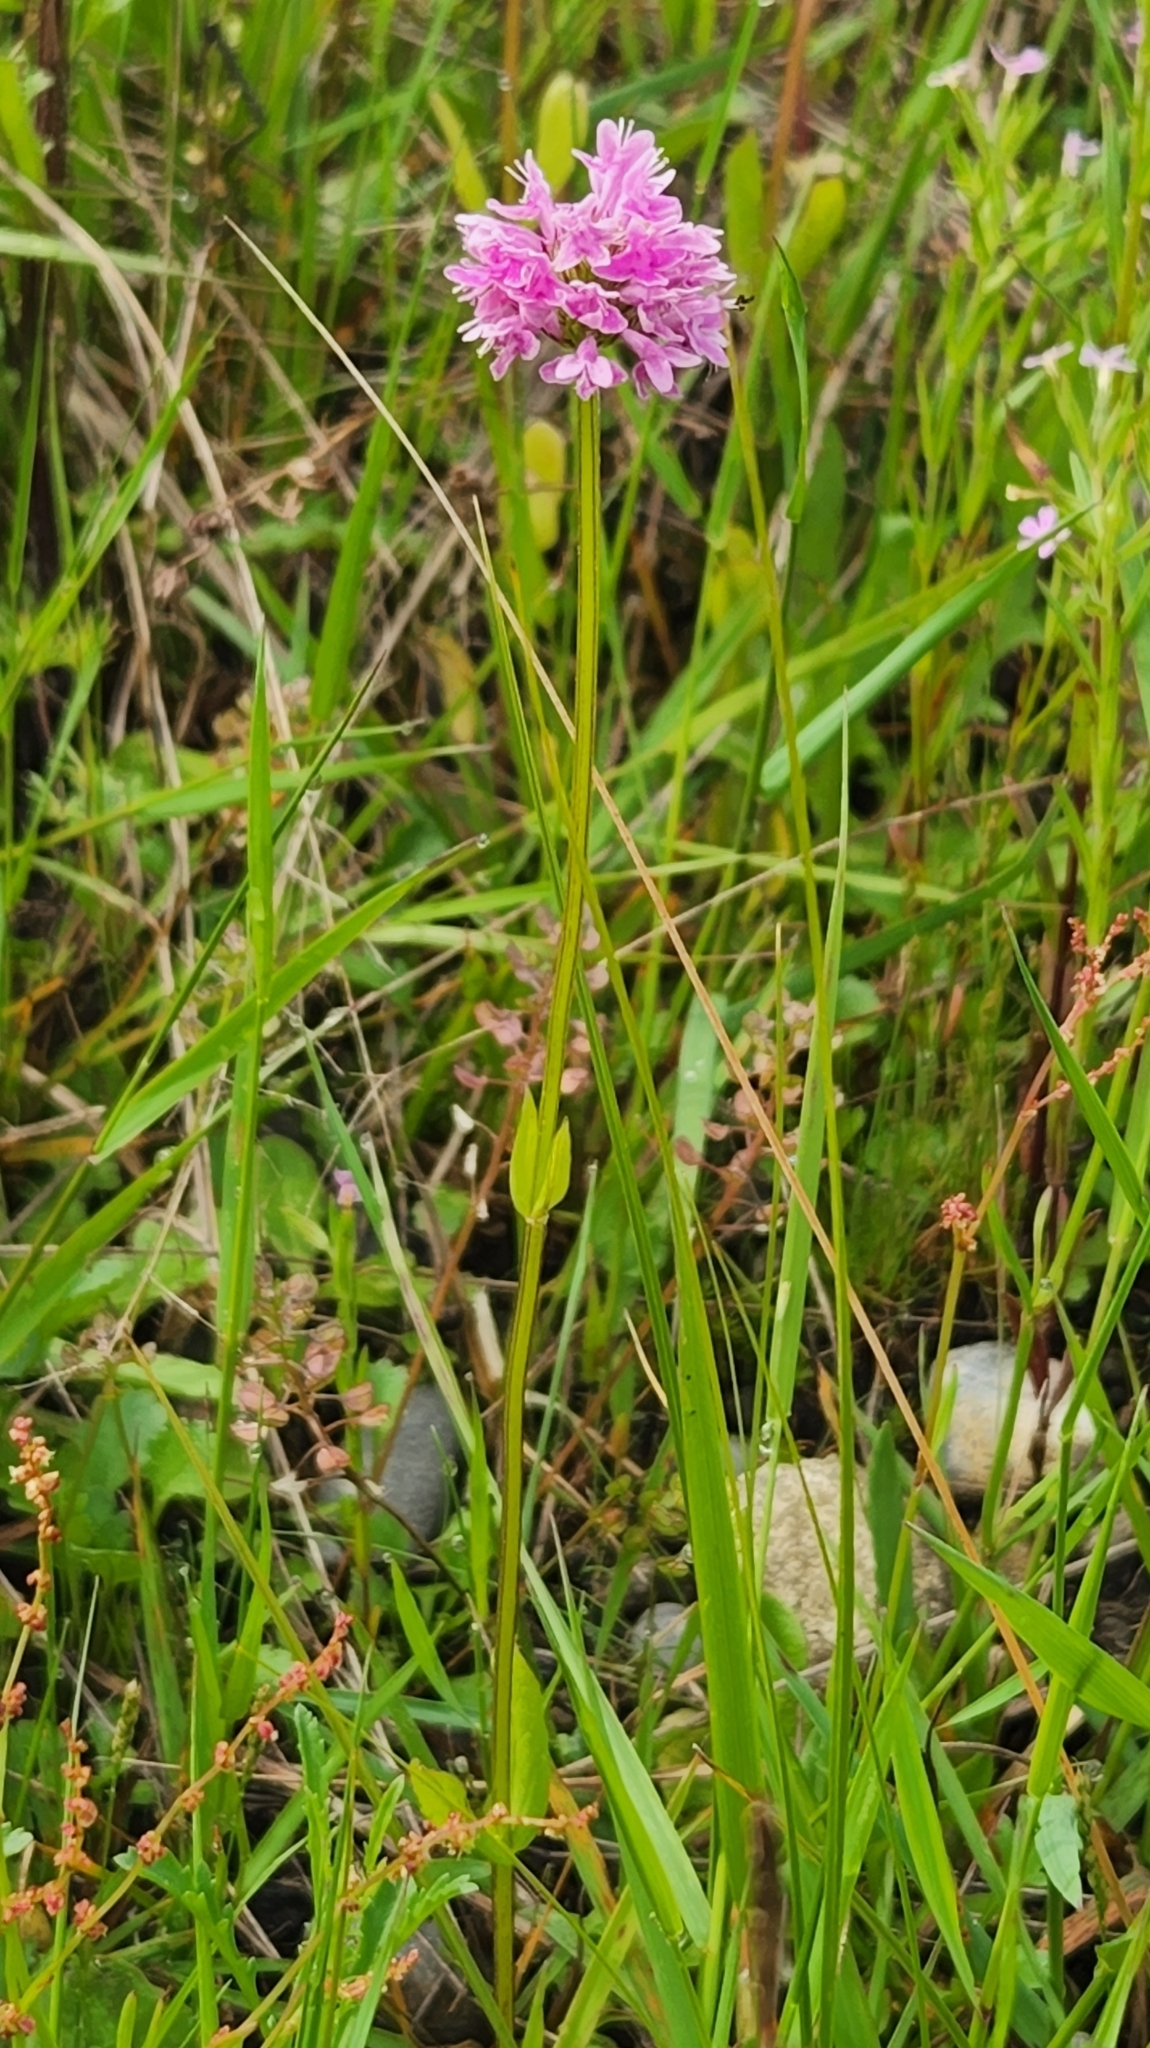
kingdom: Plantae
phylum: Tracheophyta
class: Magnoliopsida
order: Dipsacales
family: Caprifoliaceae
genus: Plectritis
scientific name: Plectritis congesta
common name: Pink plectritis
